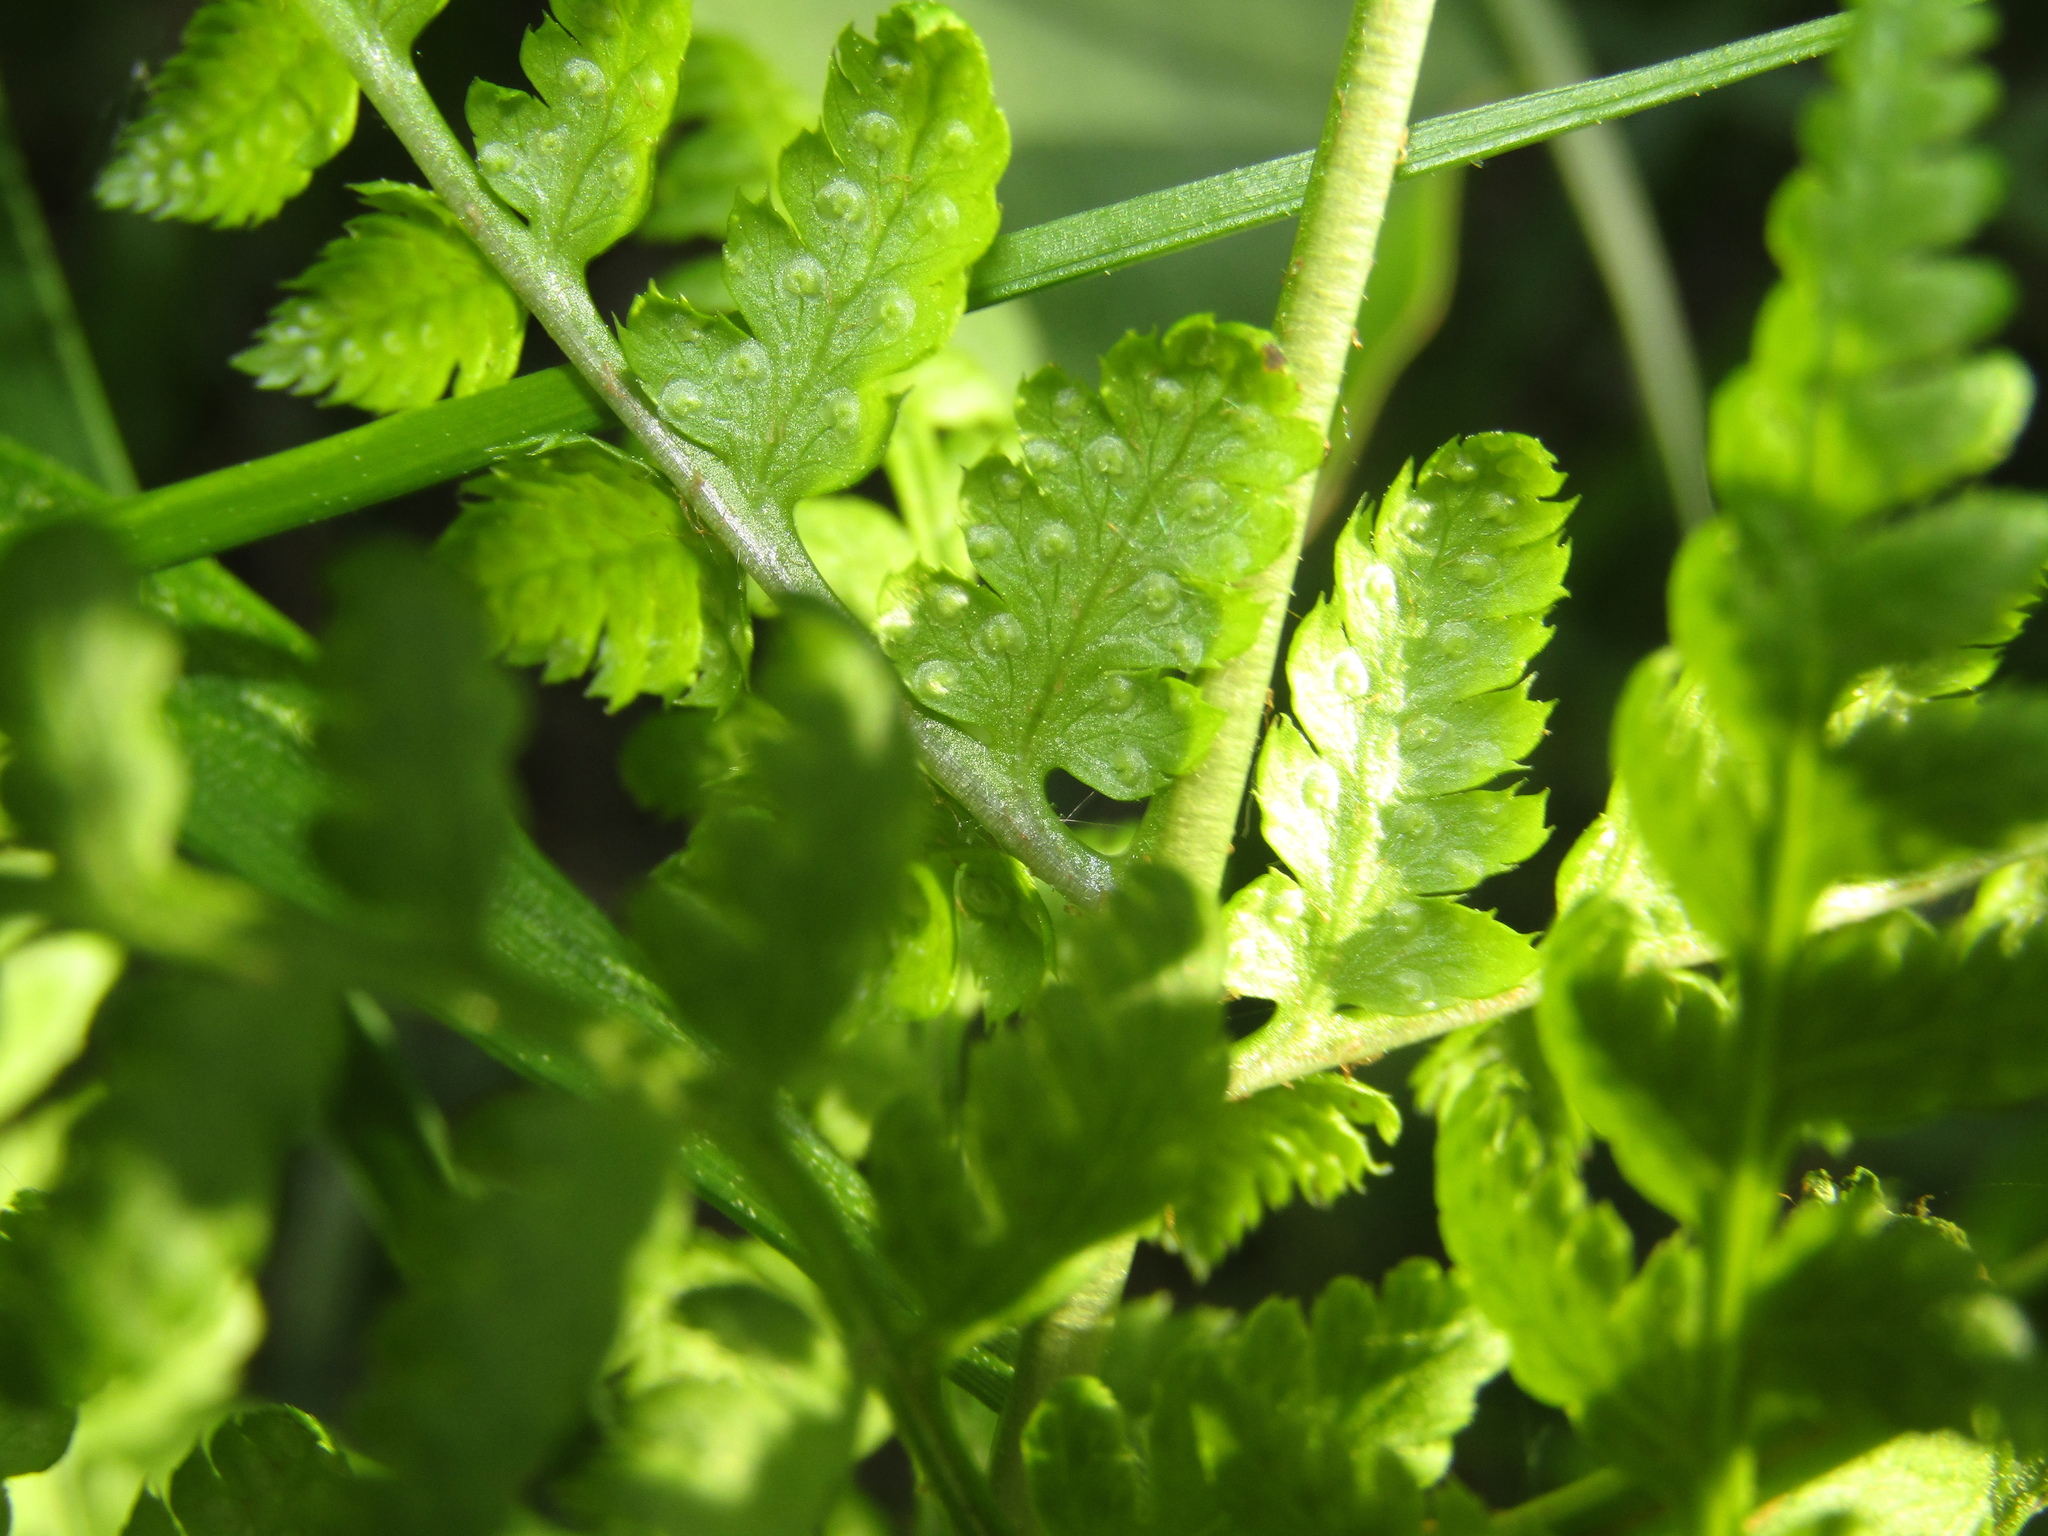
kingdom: Plantae
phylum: Tracheophyta
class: Polypodiopsida
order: Polypodiales
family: Dryopteridaceae
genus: Dryopteris
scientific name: Dryopteris carthusiana
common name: Narrow buckler-fern
